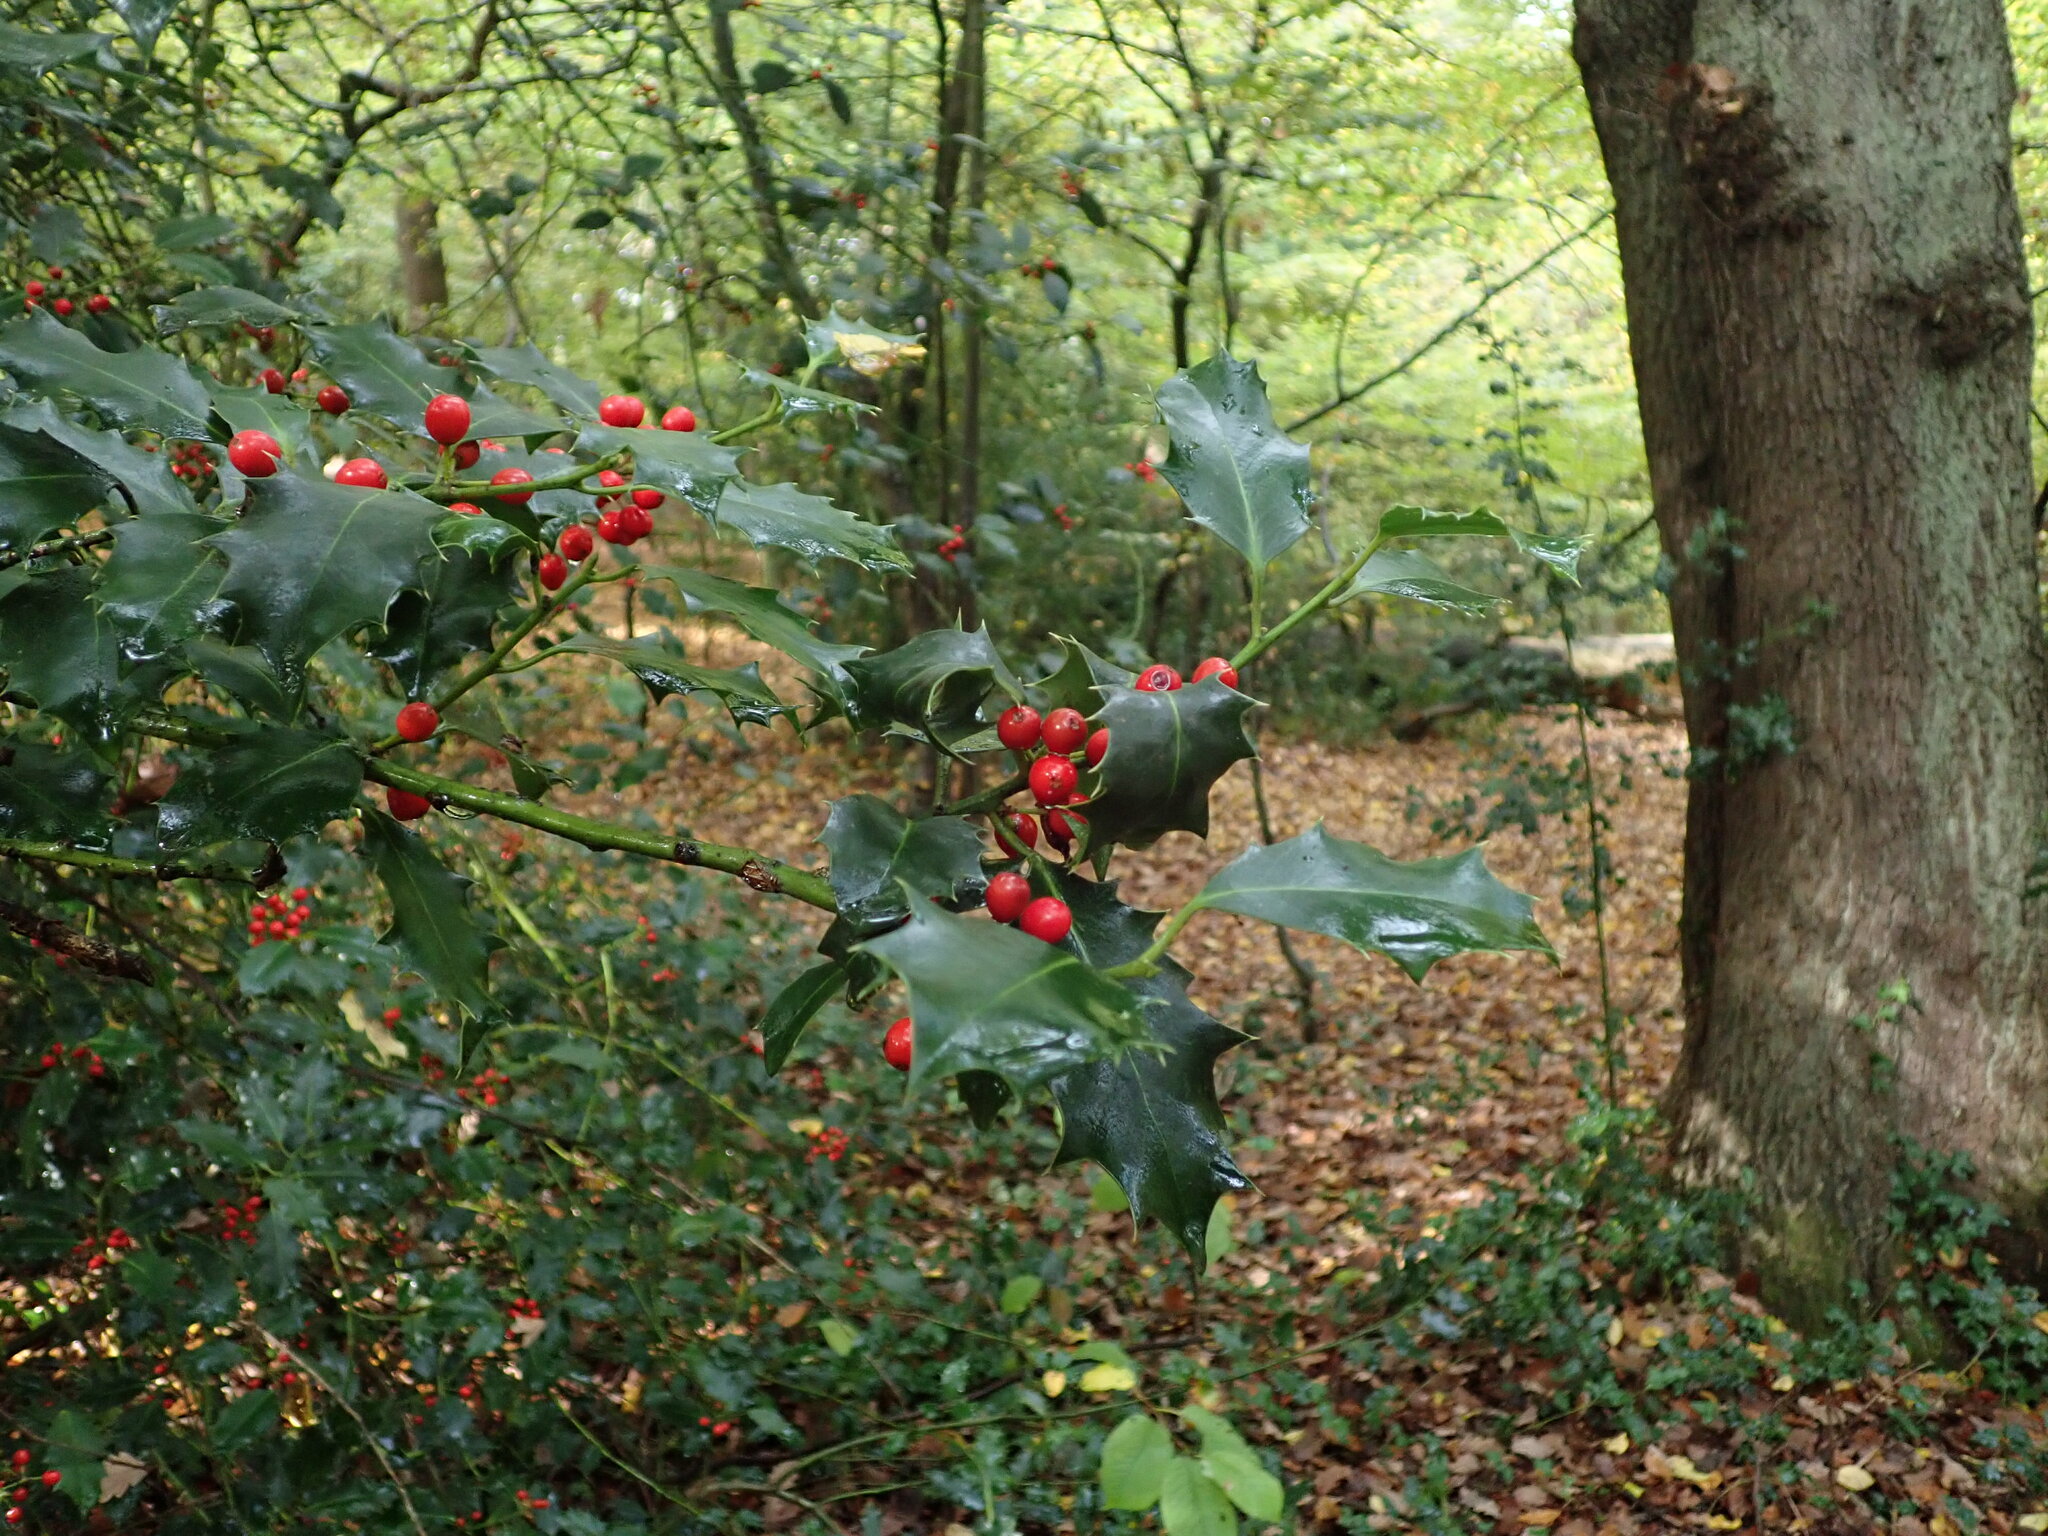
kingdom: Plantae
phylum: Tracheophyta
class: Magnoliopsida
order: Aquifoliales
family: Aquifoliaceae
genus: Ilex
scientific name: Ilex aquifolium
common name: English holly
